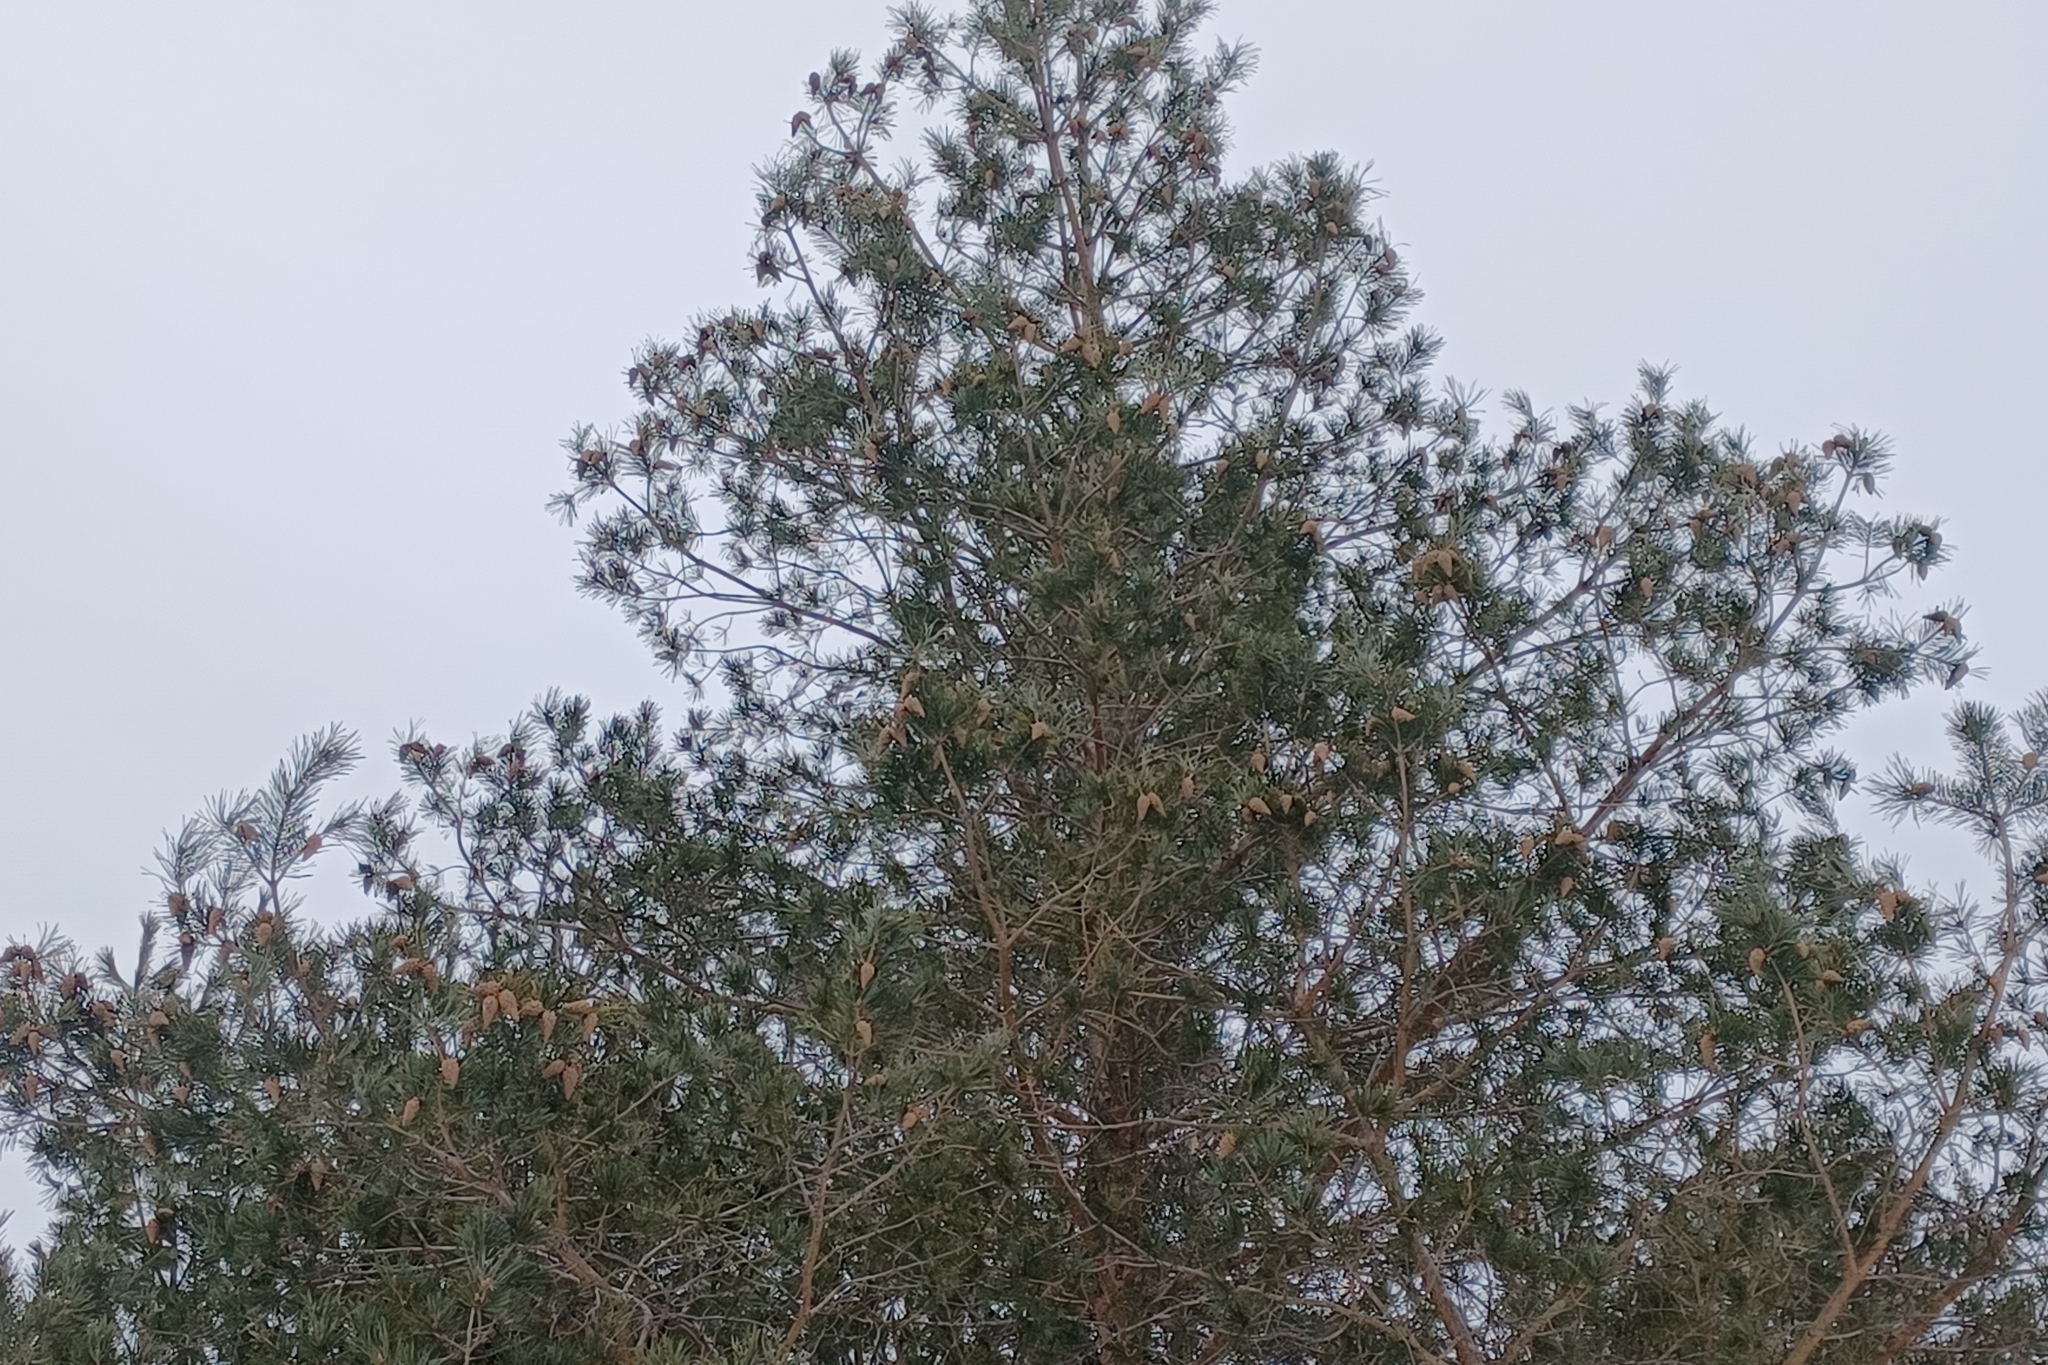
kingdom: Plantae
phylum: Tracheophyta
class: Pinopsida
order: Pinales
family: Pinaceae
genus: Pinus
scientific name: Pinus sylvestris
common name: Scots pine
